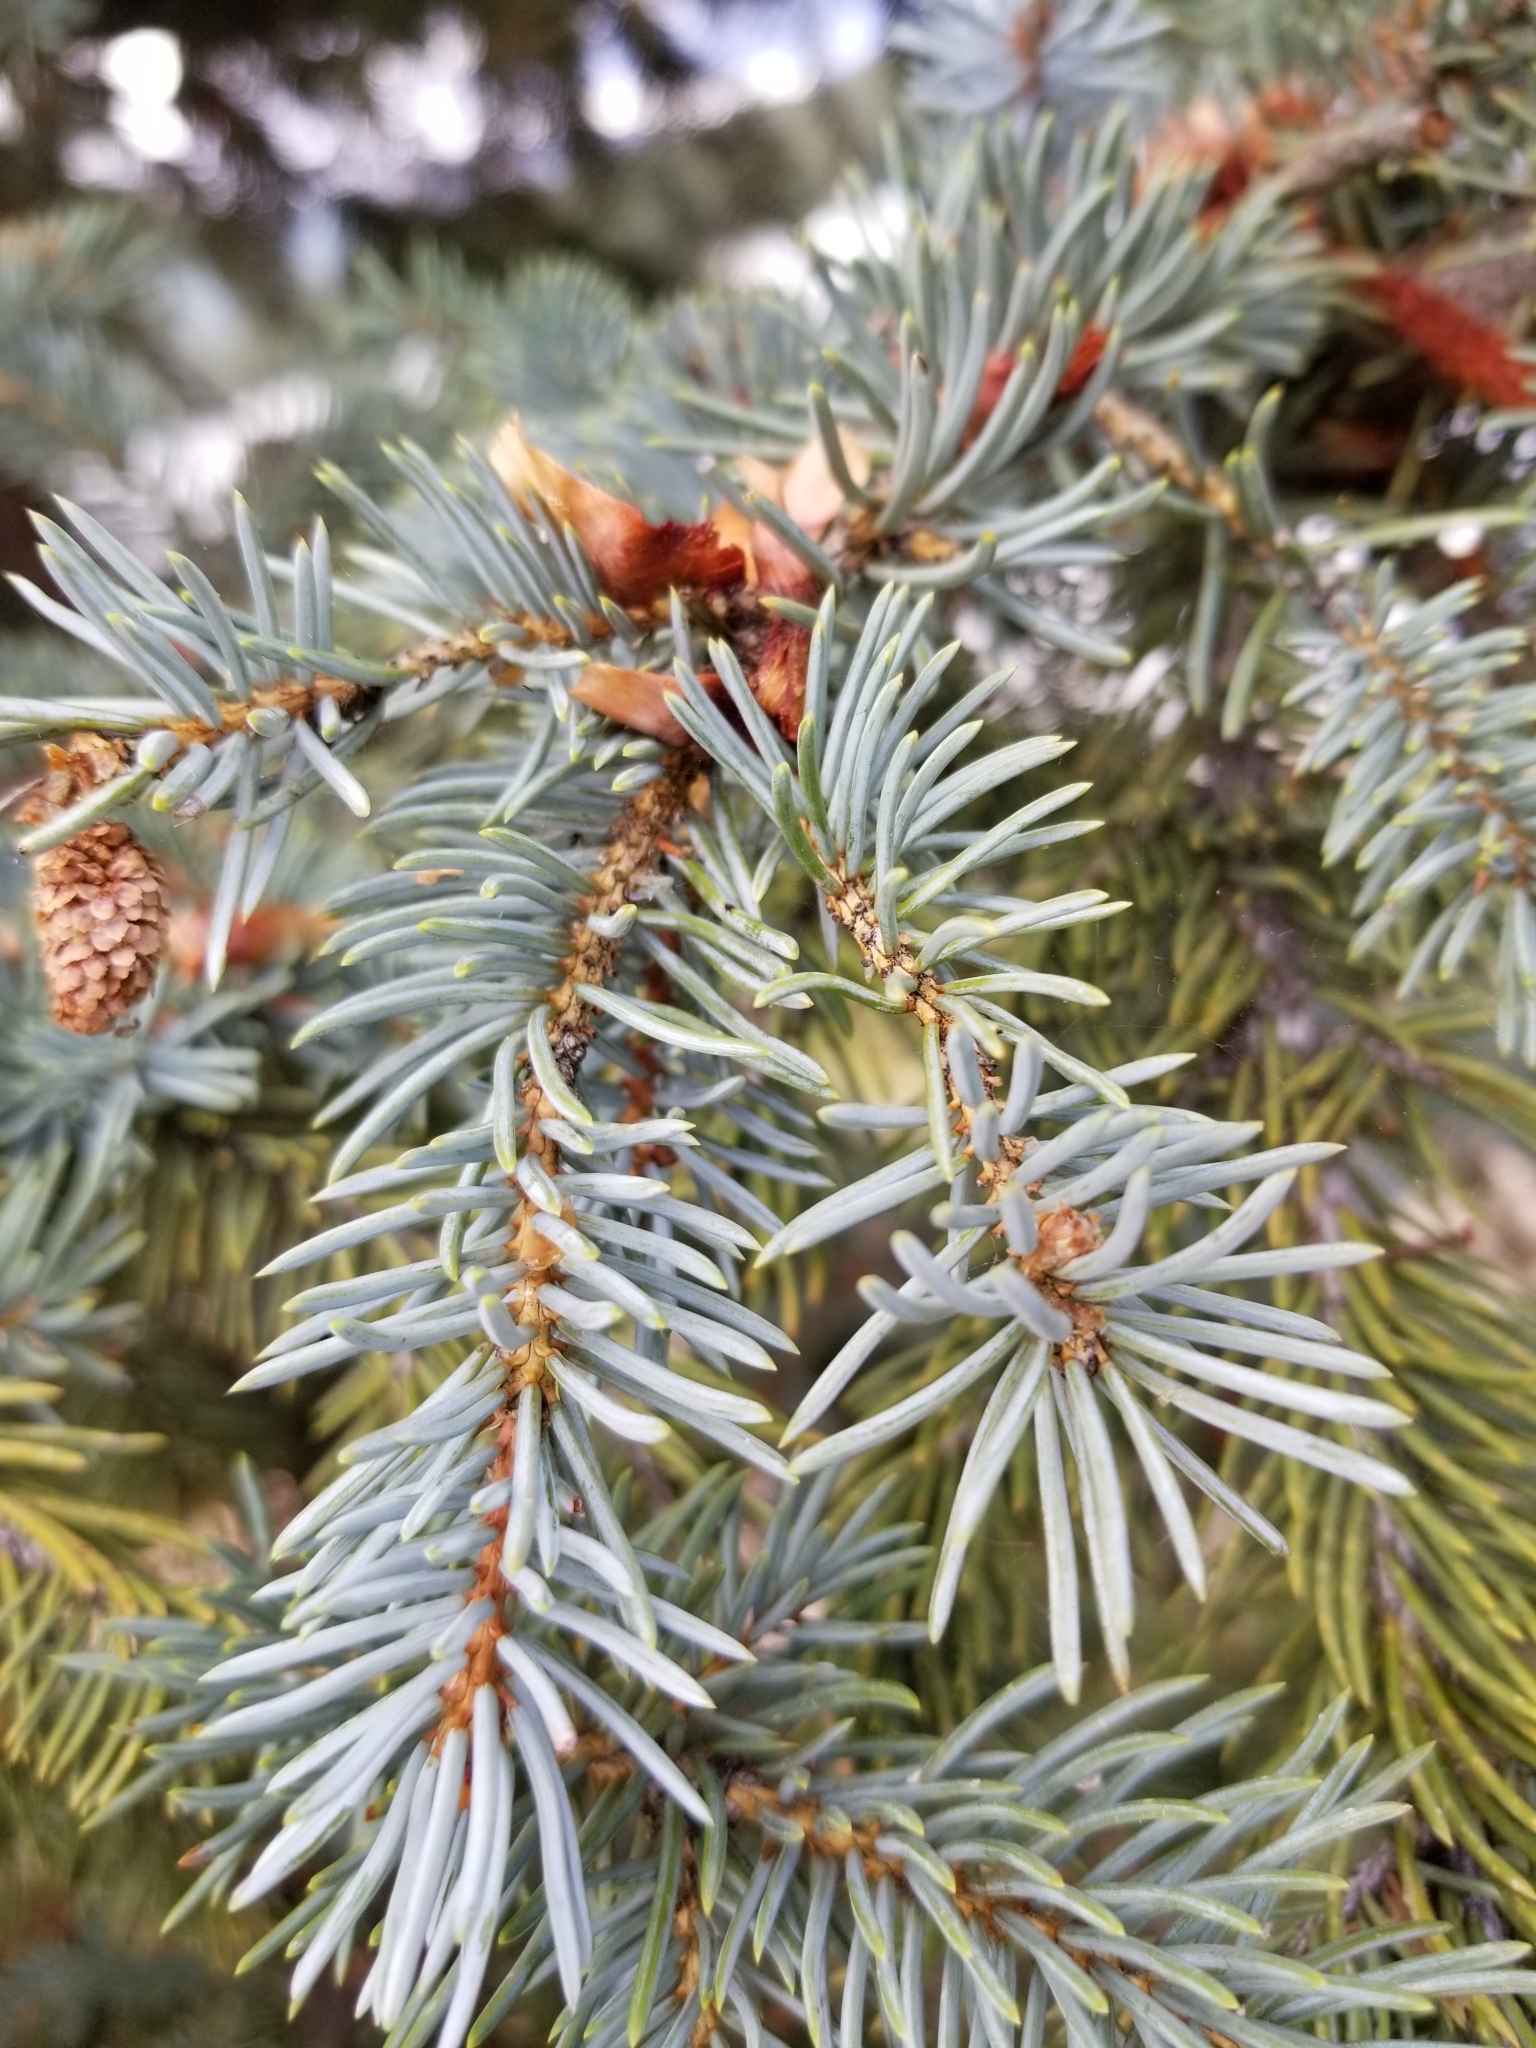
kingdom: Plantae
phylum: Tracheophyta
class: Pinopsida
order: Pinales
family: Pinaceae
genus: Picea
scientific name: Picea pungens
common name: Colorado spruce
